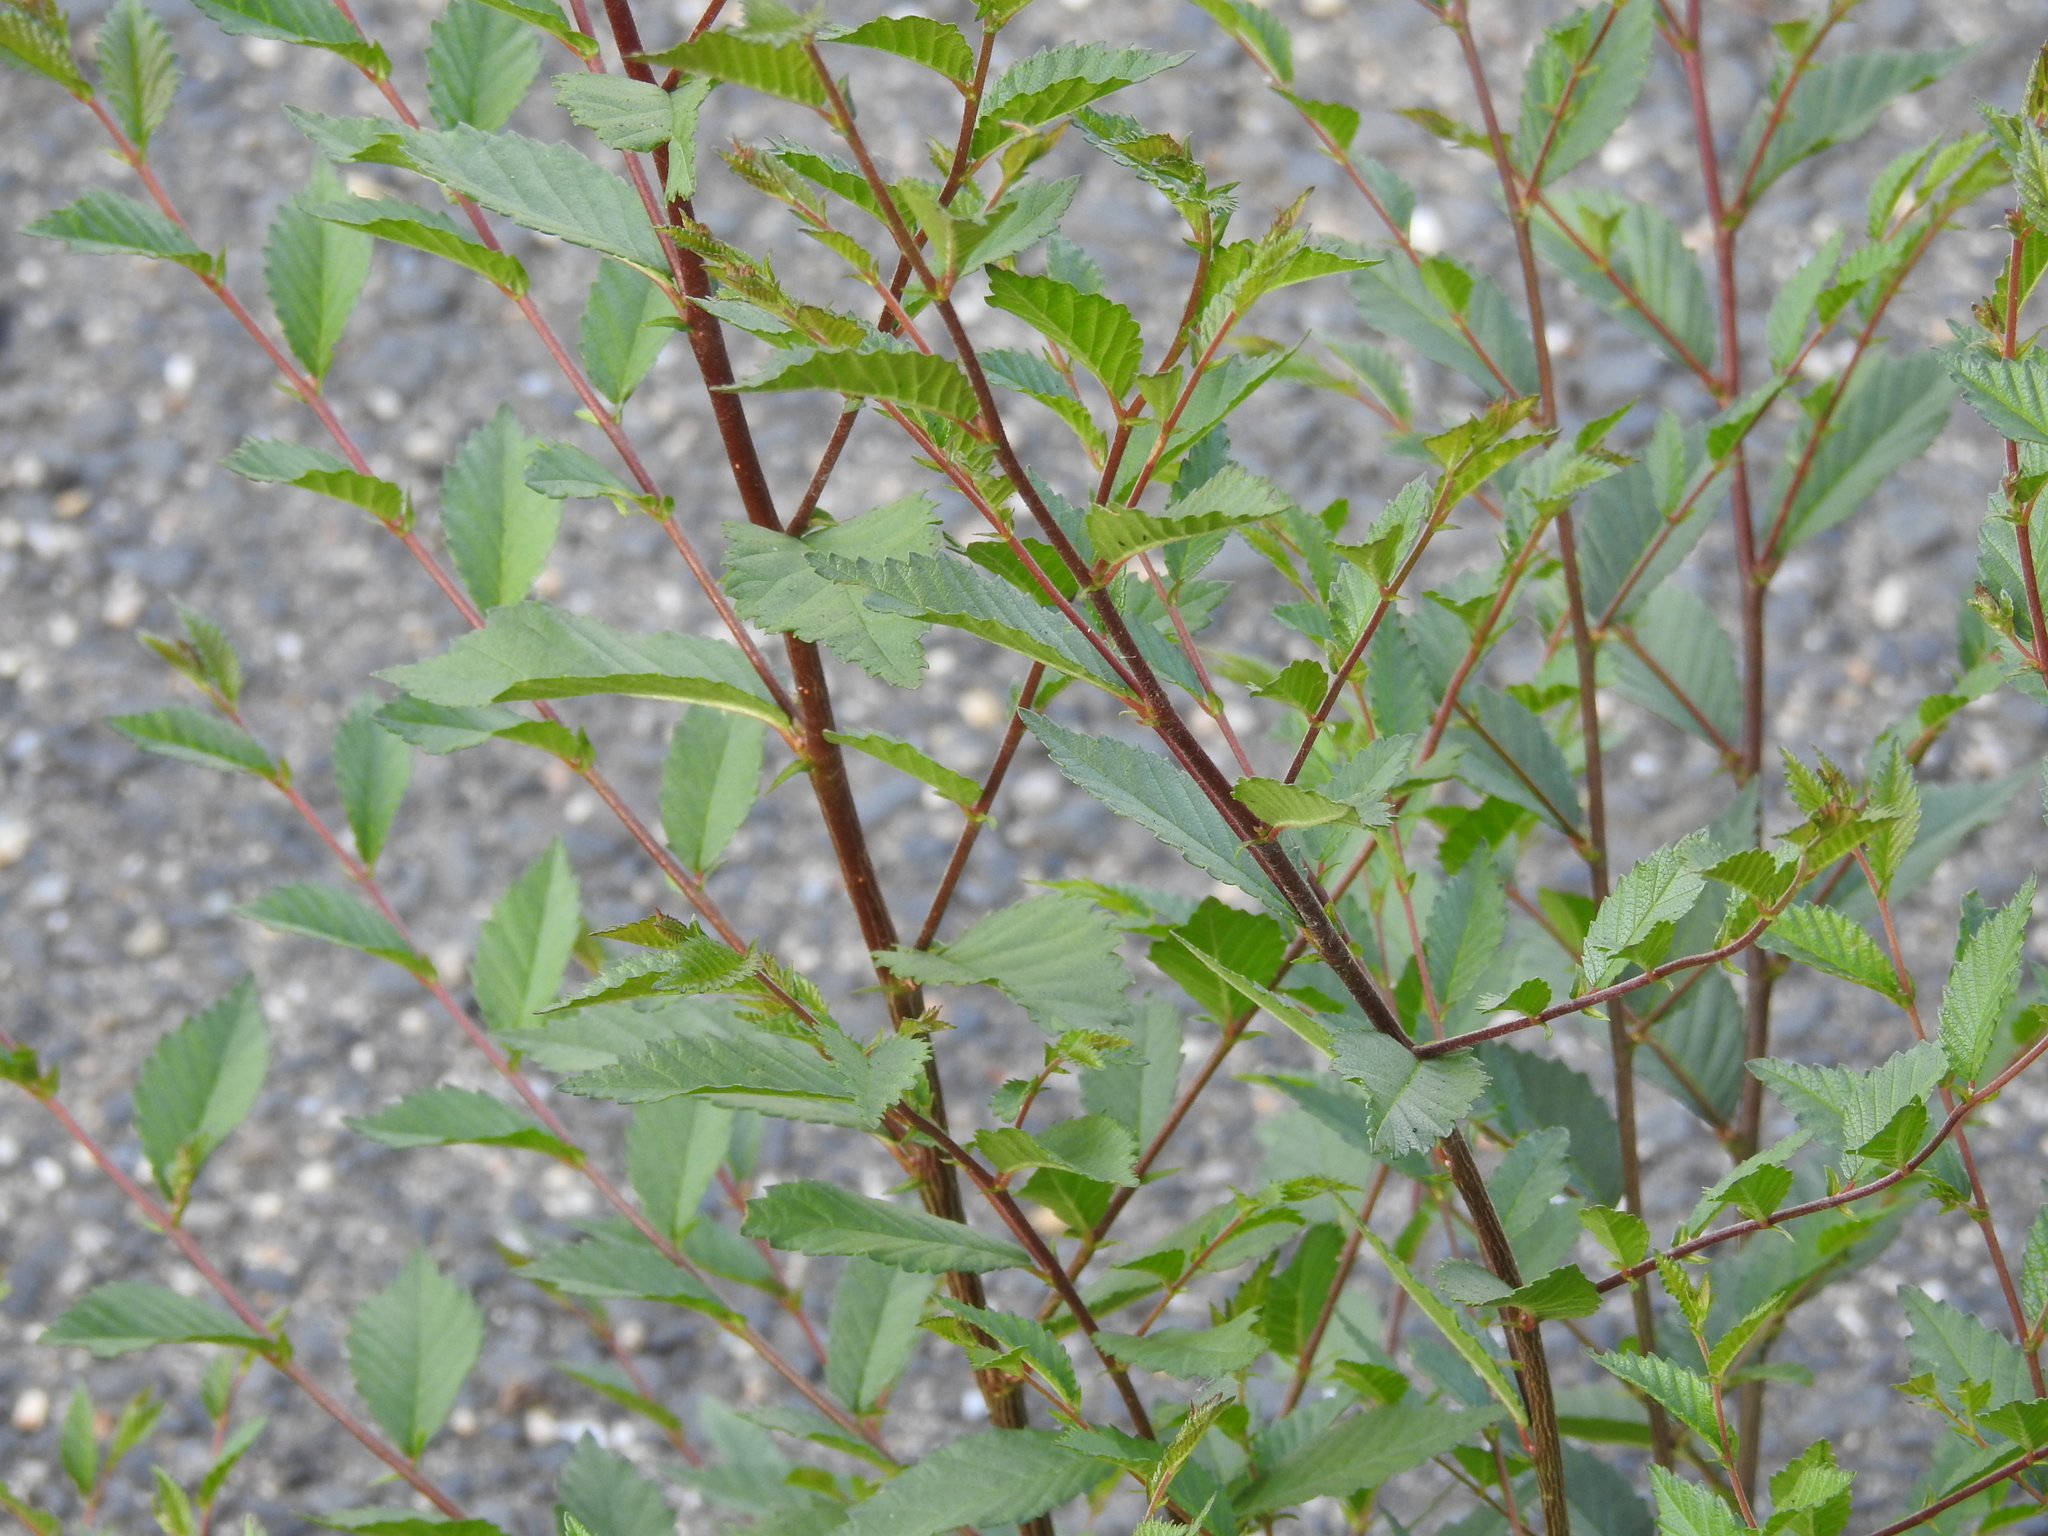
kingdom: Plantae
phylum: Tracheophyta
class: Magnoliopsida
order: Rosales
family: Ulmaceae
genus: Ulmus
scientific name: Ulmus minor
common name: Small-leaved elm
